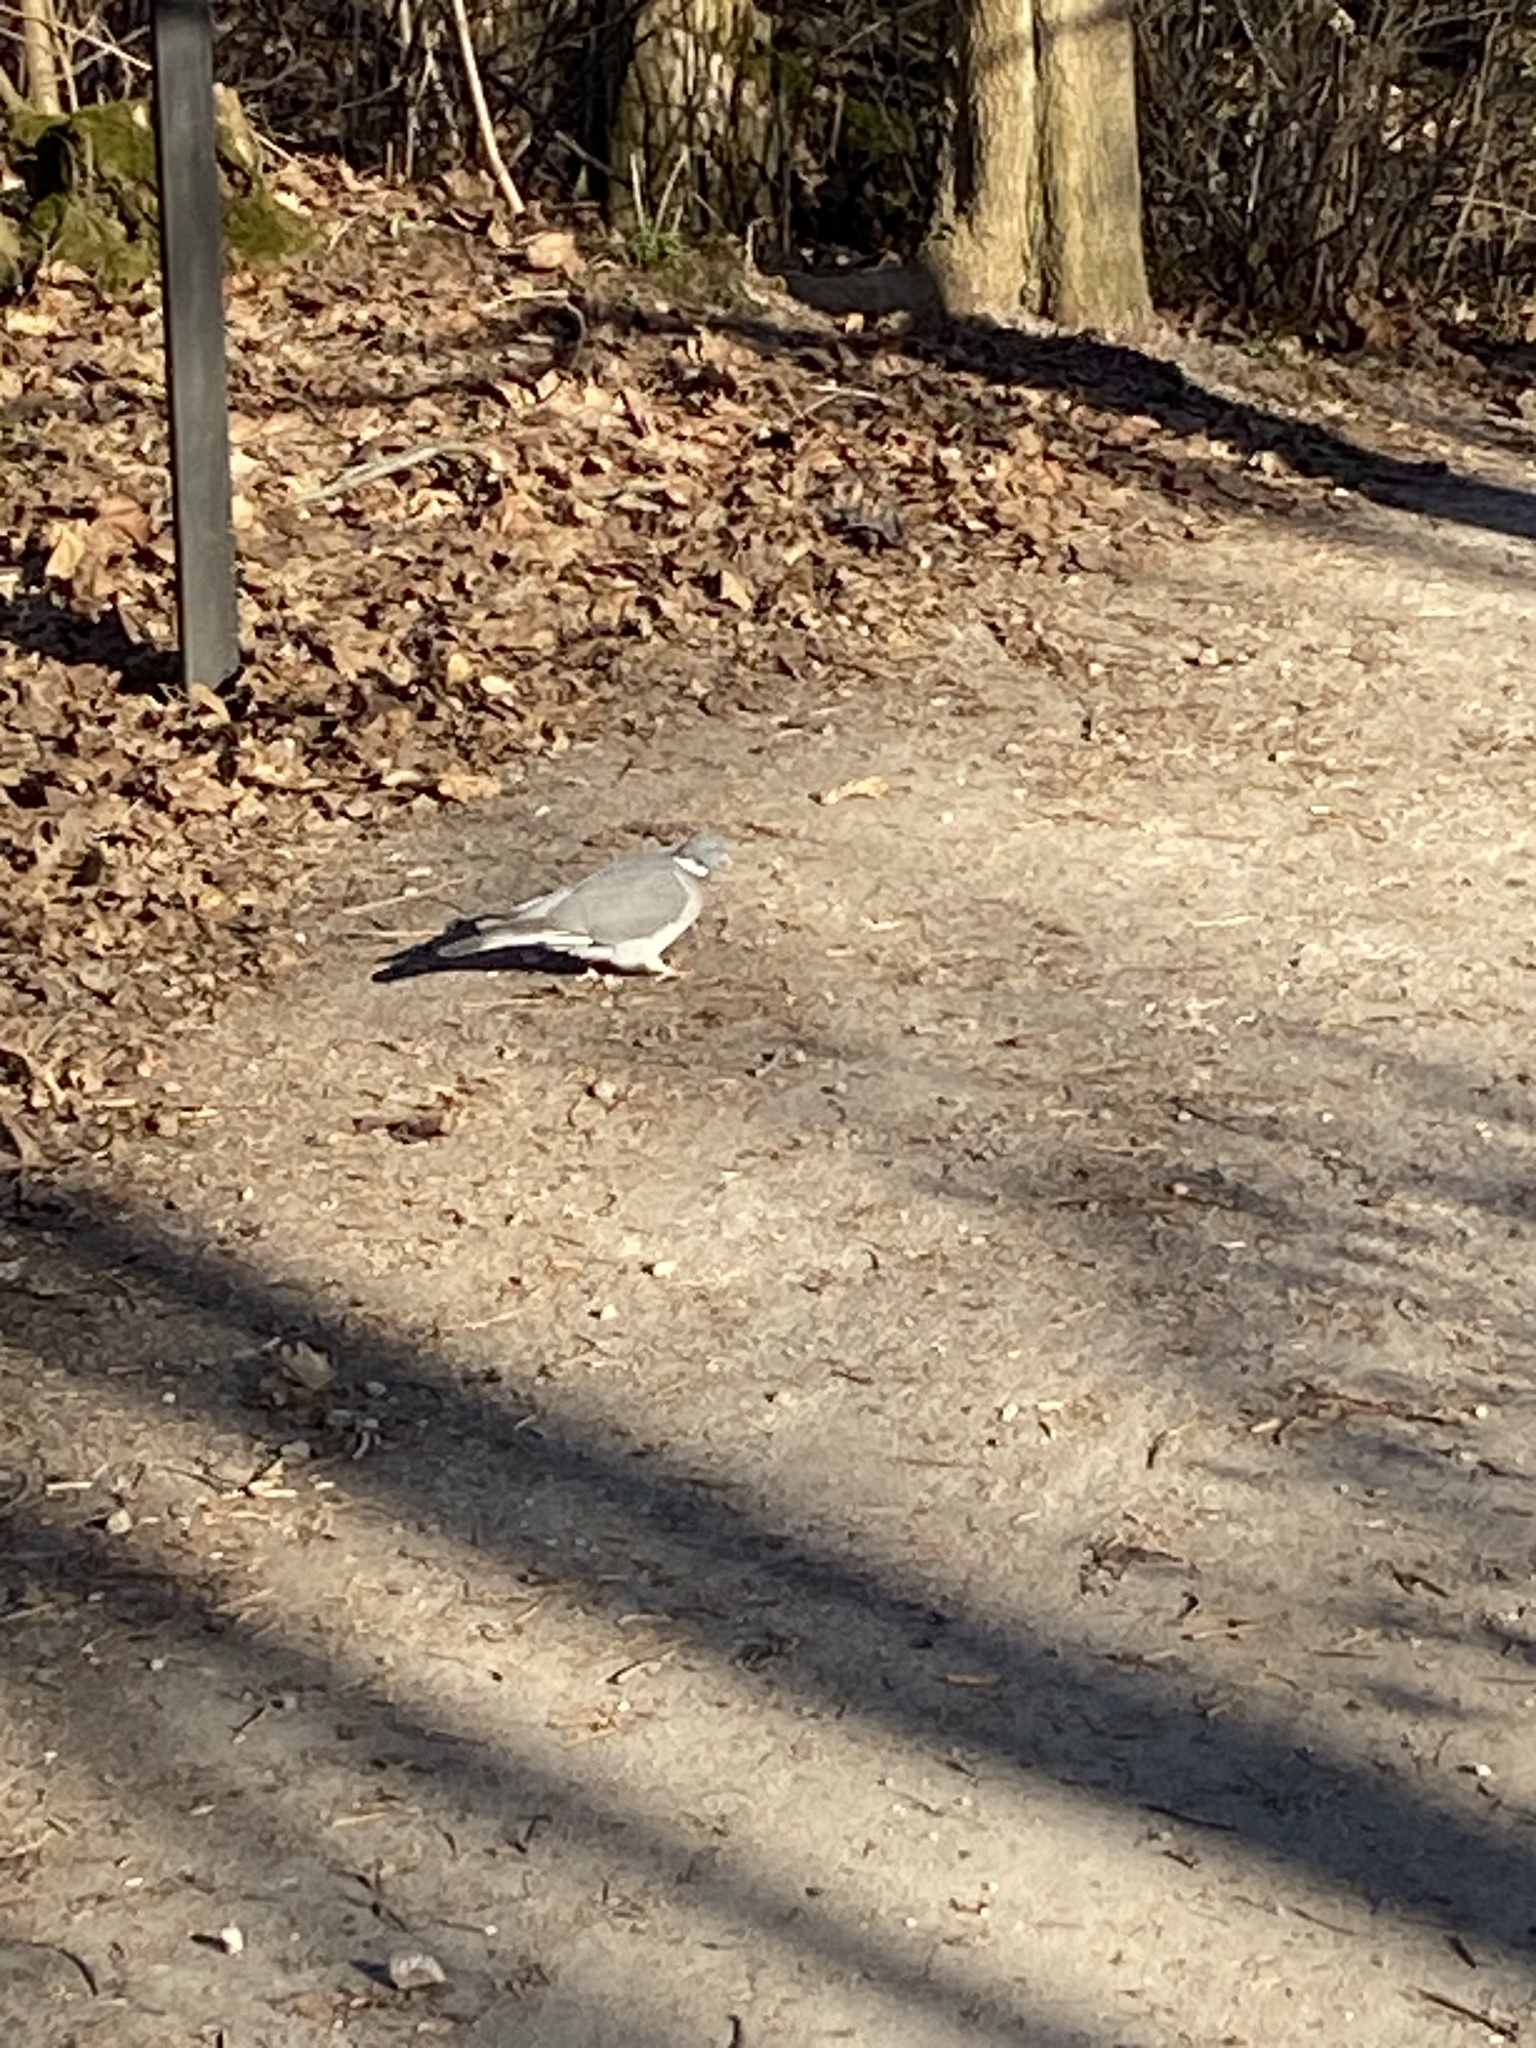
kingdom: Animalia
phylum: Chordata
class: Aves
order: Columbiformes
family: Columbidae
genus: Columba
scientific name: Columba palumbus
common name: Common wood pigeon
